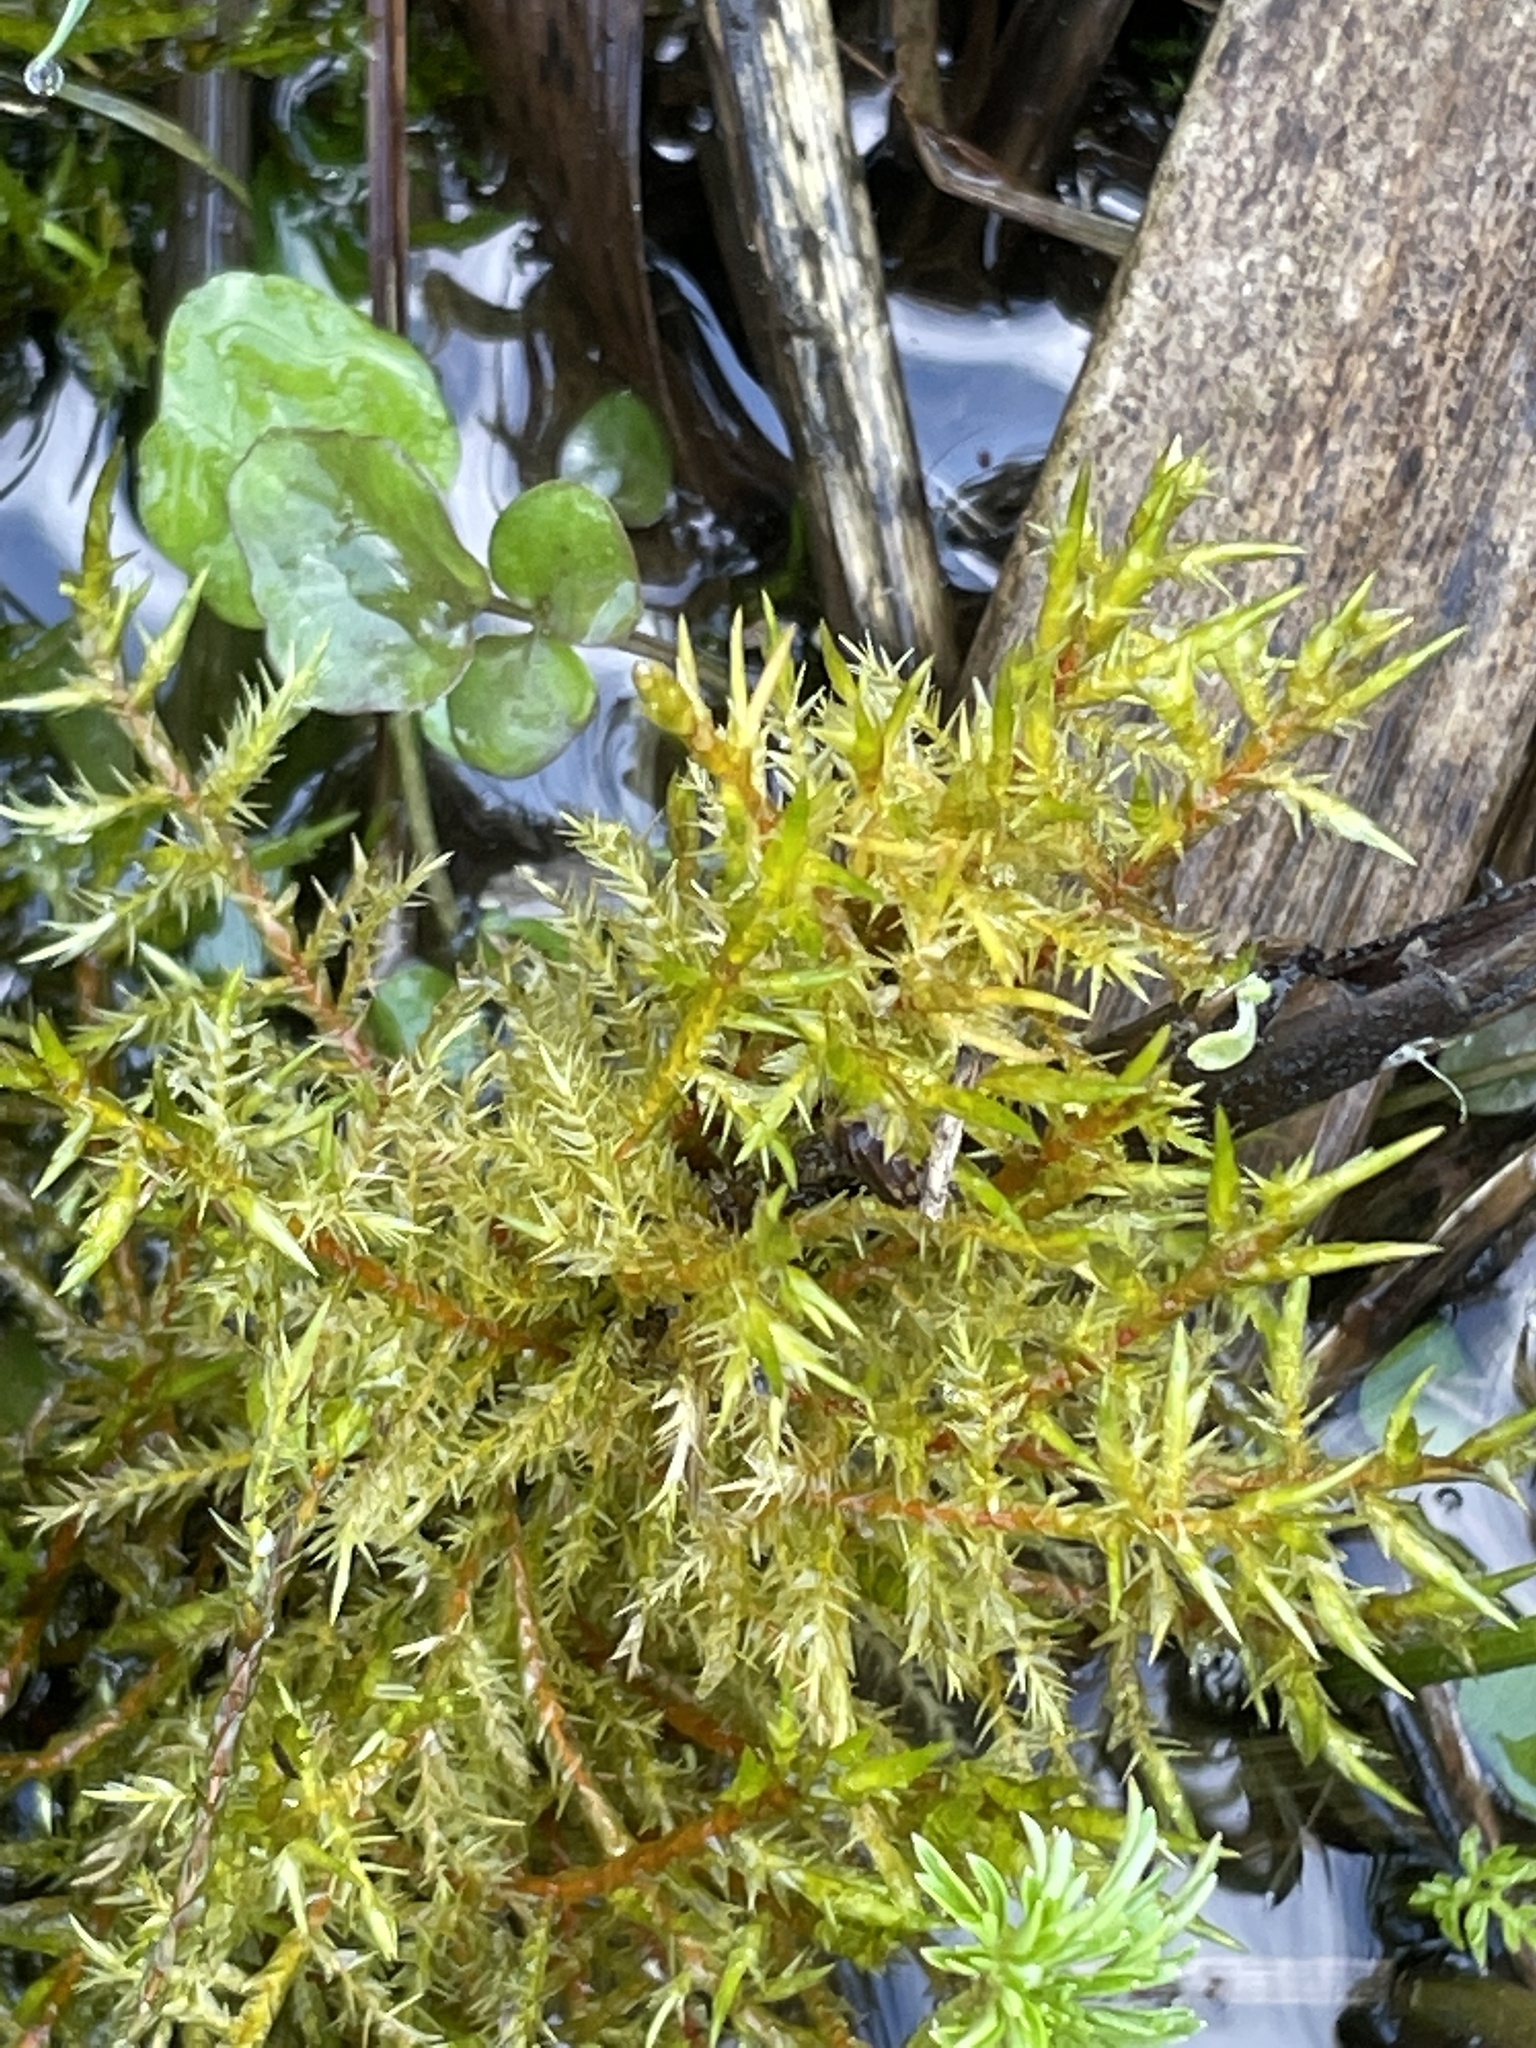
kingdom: Plantae
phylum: Bryophyta
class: Bryopsida
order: Hypnales
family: Pylaisiaceae
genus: Calliergonella
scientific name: Calliergonella cuspidata
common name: Common large wetland moss
